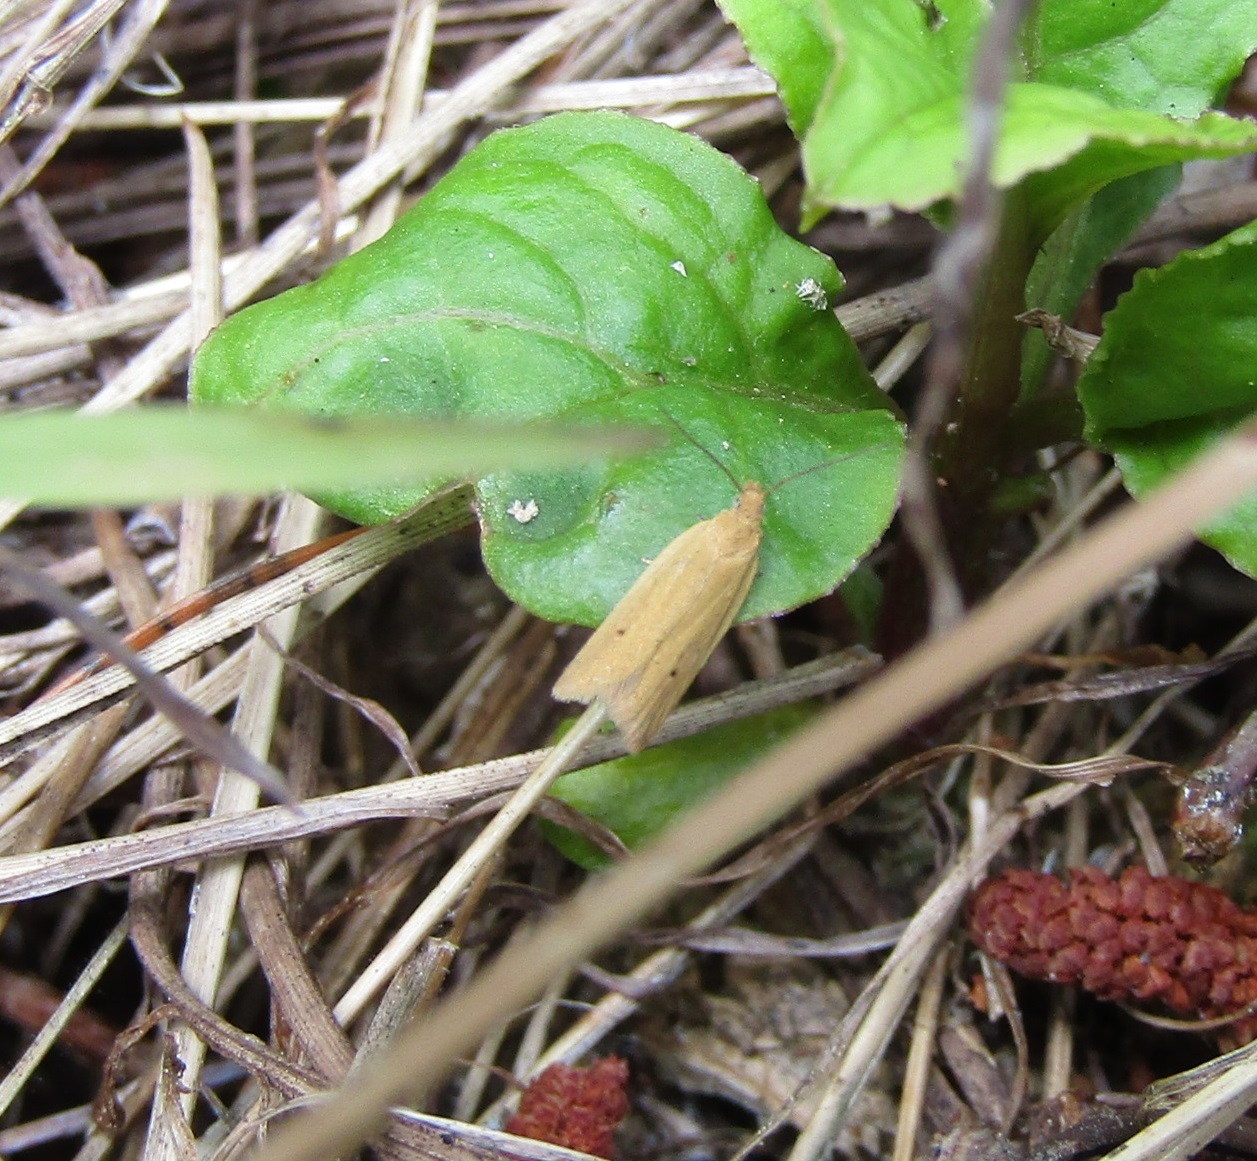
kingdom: Animalia
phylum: Arthropoda
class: Insecta
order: Lepidoptera
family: Tortricidae
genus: Epichorista
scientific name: Epichorista siriana
